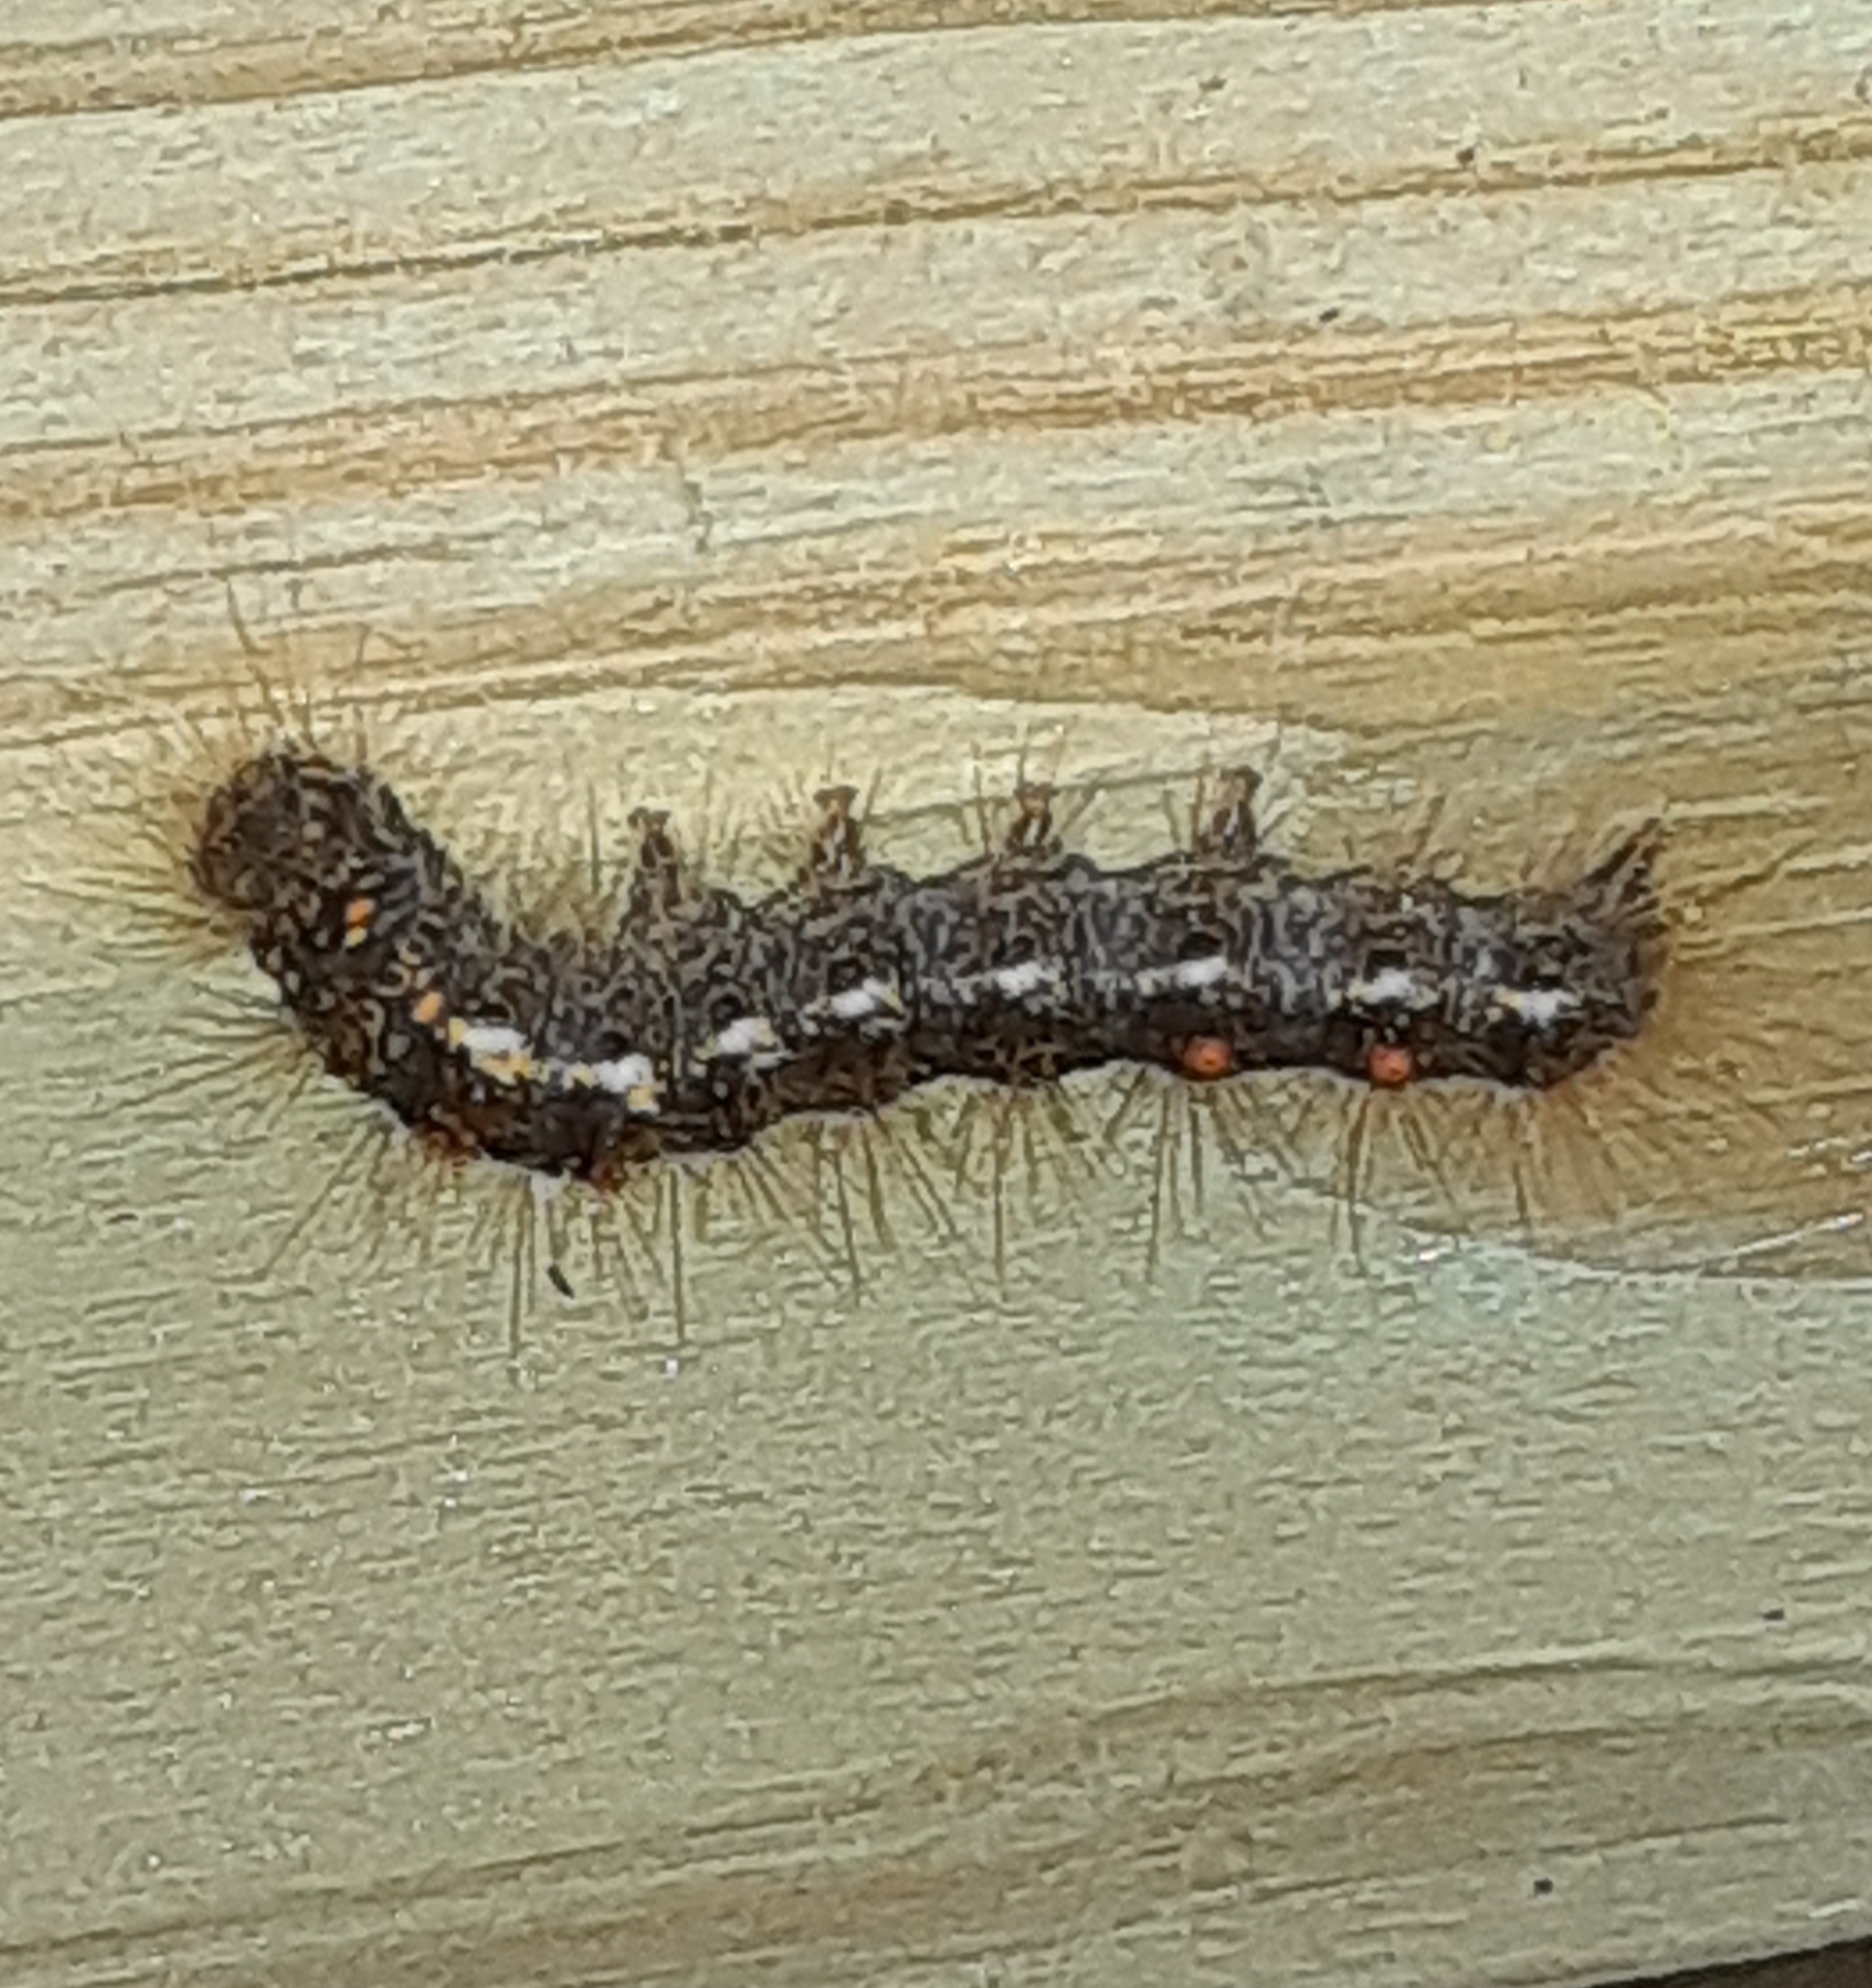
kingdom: Animalia
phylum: Arthropoda
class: Insecta
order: Lepidoptera
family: Erebidae
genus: Euproctis
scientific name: Euproctis chrysorrhoea
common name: Brown-tail
